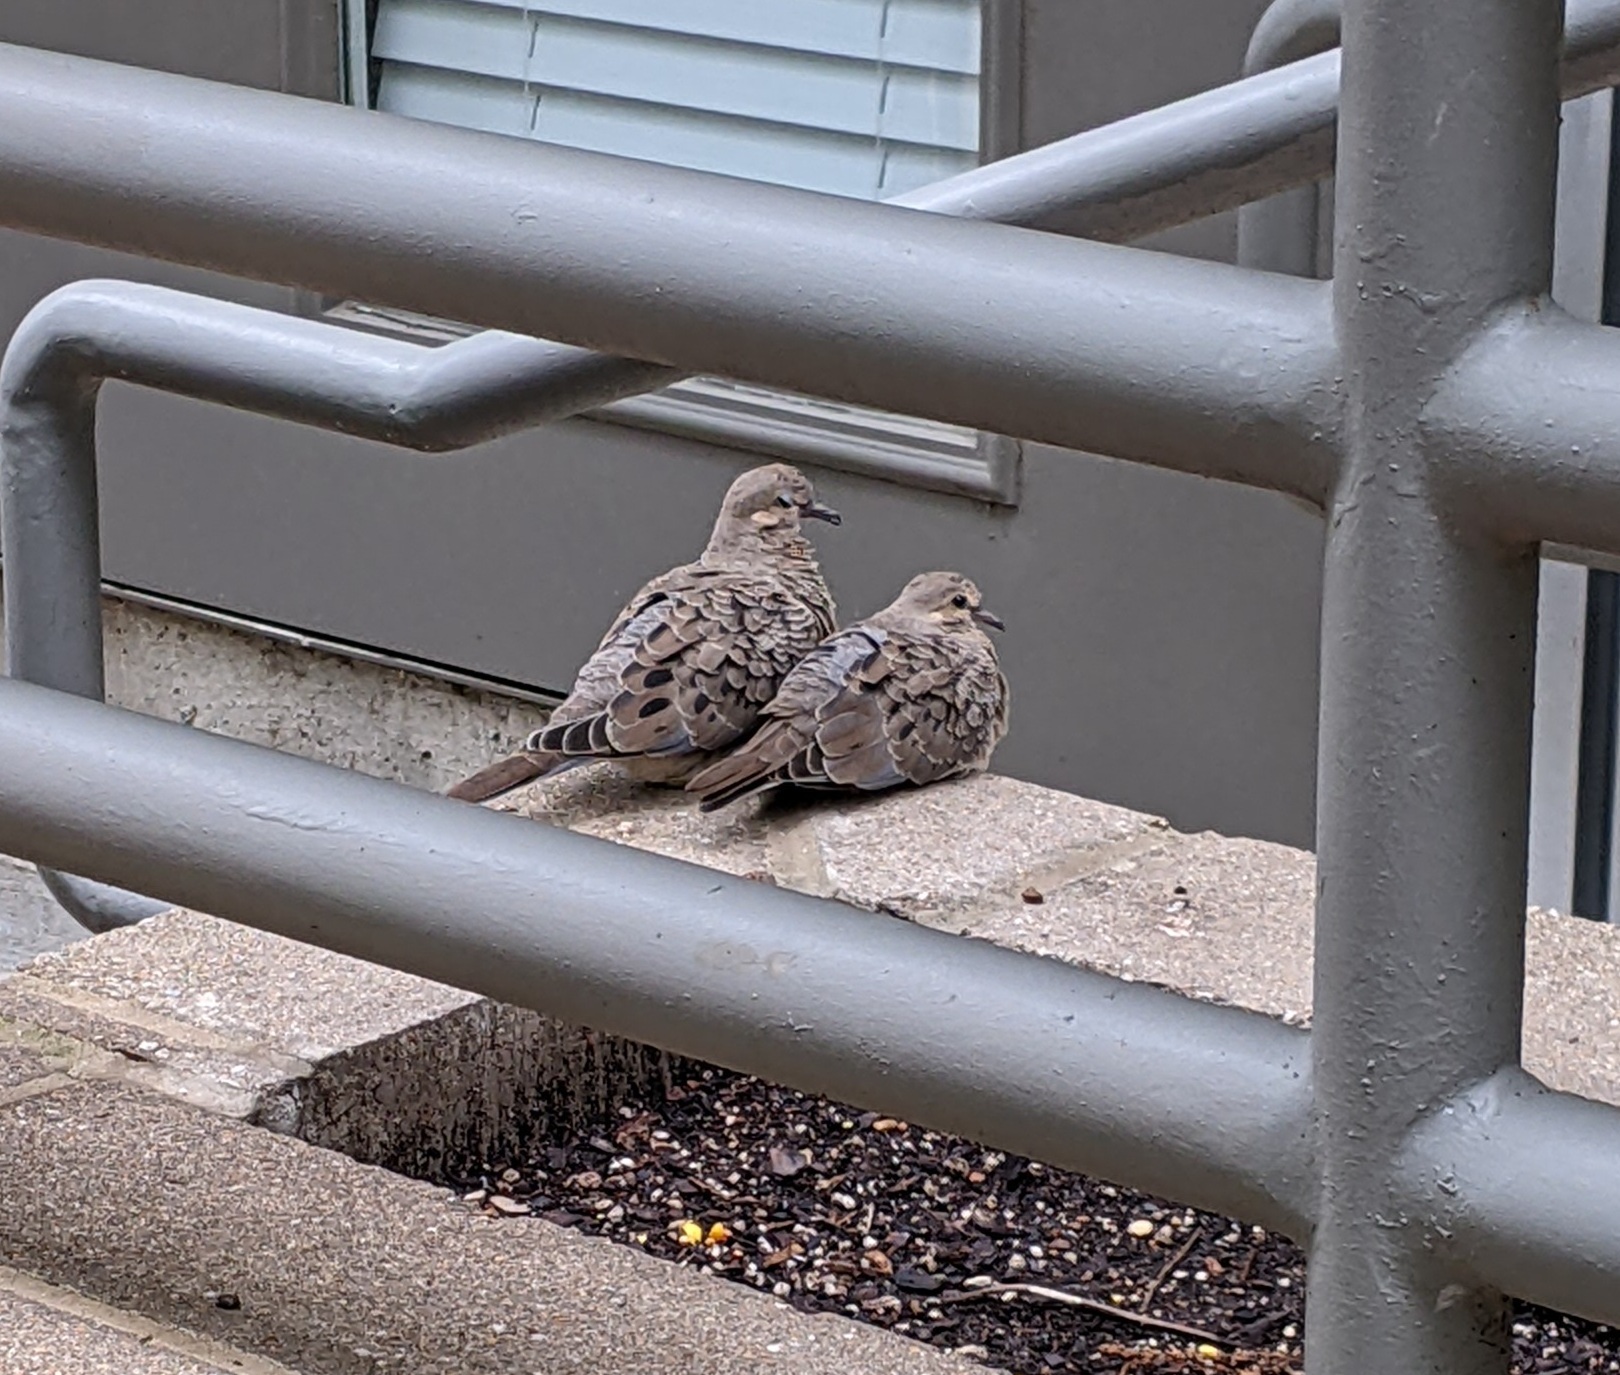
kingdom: Animalia
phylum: Chordata
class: Aves
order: Columbiformes
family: Columbidae
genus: Zenaida
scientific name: Zenaida macroura
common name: Mourning dove
